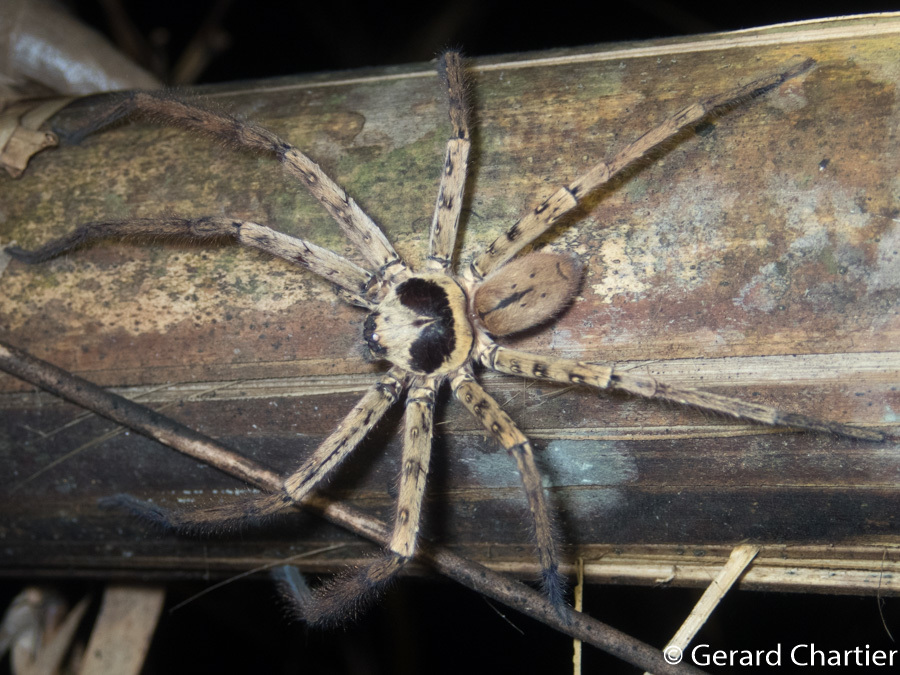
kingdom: Animalia
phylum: Arthropoda
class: Arachnida
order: Araneae
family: Sparassidae
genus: Heteropoda
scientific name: Heteropoda venatoria
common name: Huntsman spider
